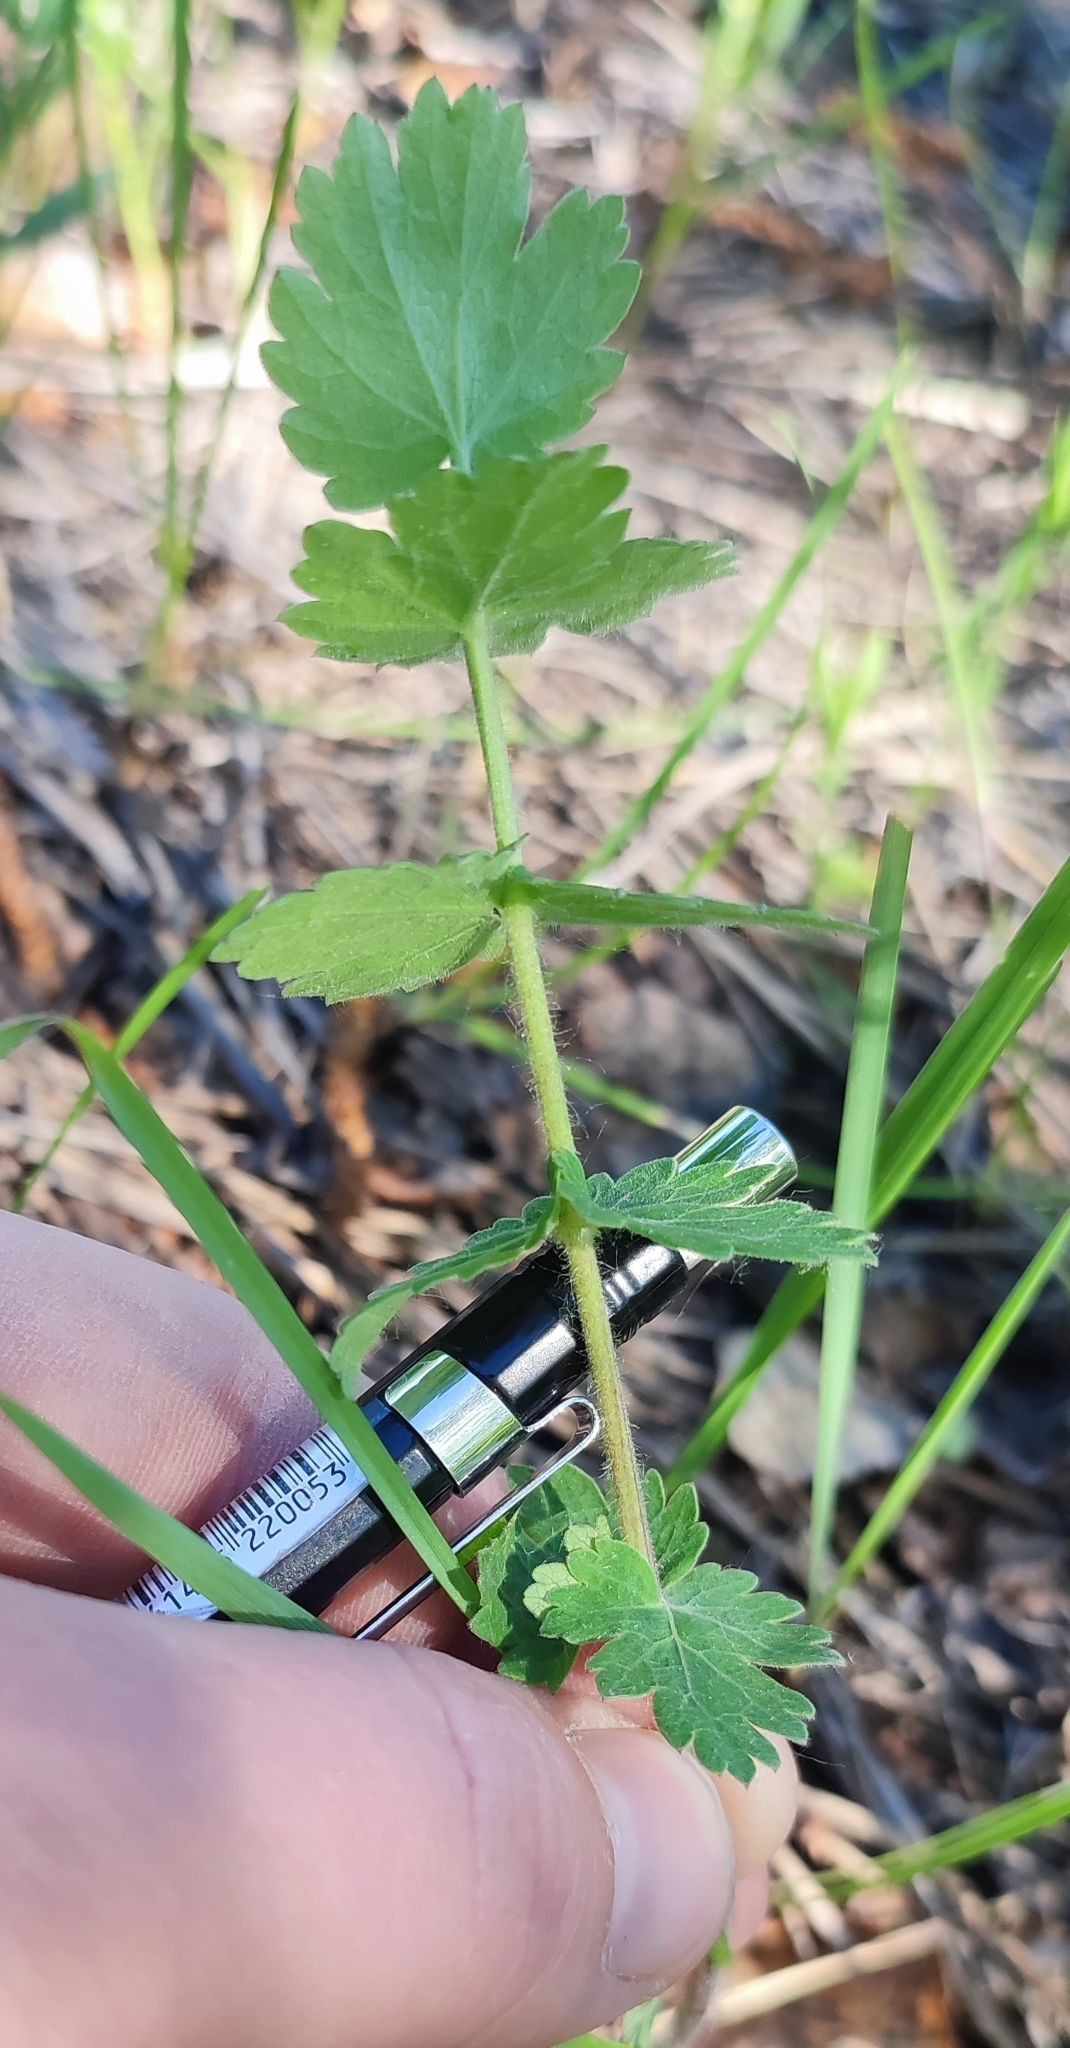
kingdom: Plantae
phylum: Tracheophyta
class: Magnoliopsida
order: Apiales
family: Apiaceae
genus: Pimpinella
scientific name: Pimpinella saxifraga
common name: Burnet-saxifrage
